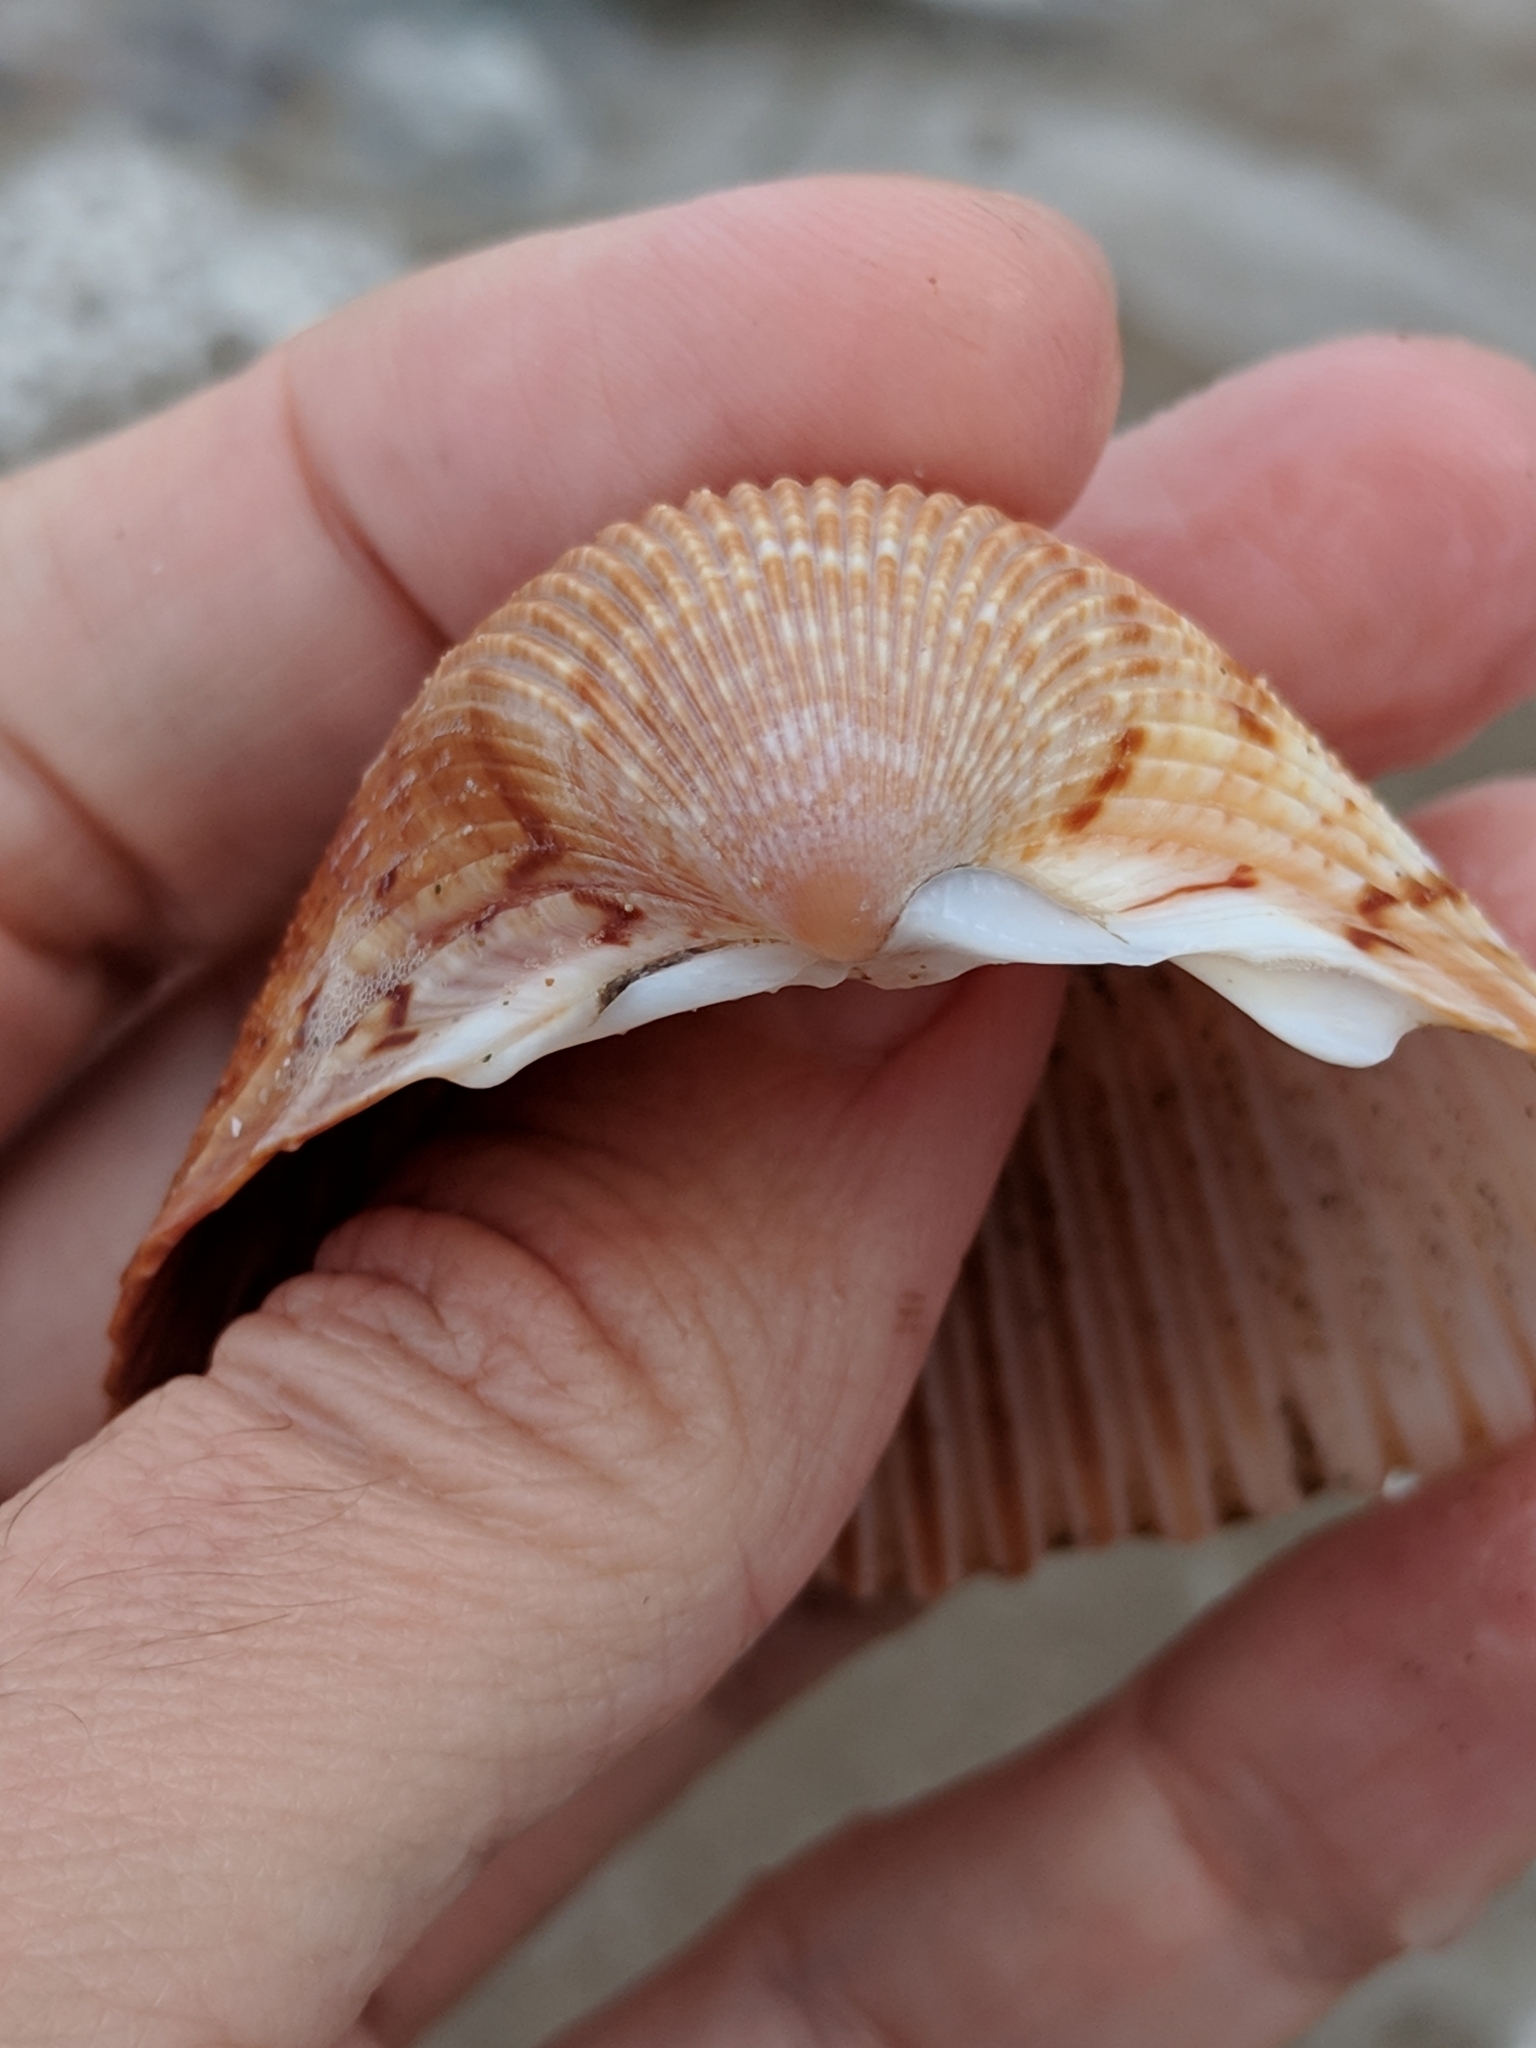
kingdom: Animalia
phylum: Mollusca
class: Bivalvia
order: Cardiida
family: Cardiidae
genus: Dinocardium
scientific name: Dinocardium robustum
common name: Atlantic giant cockle
